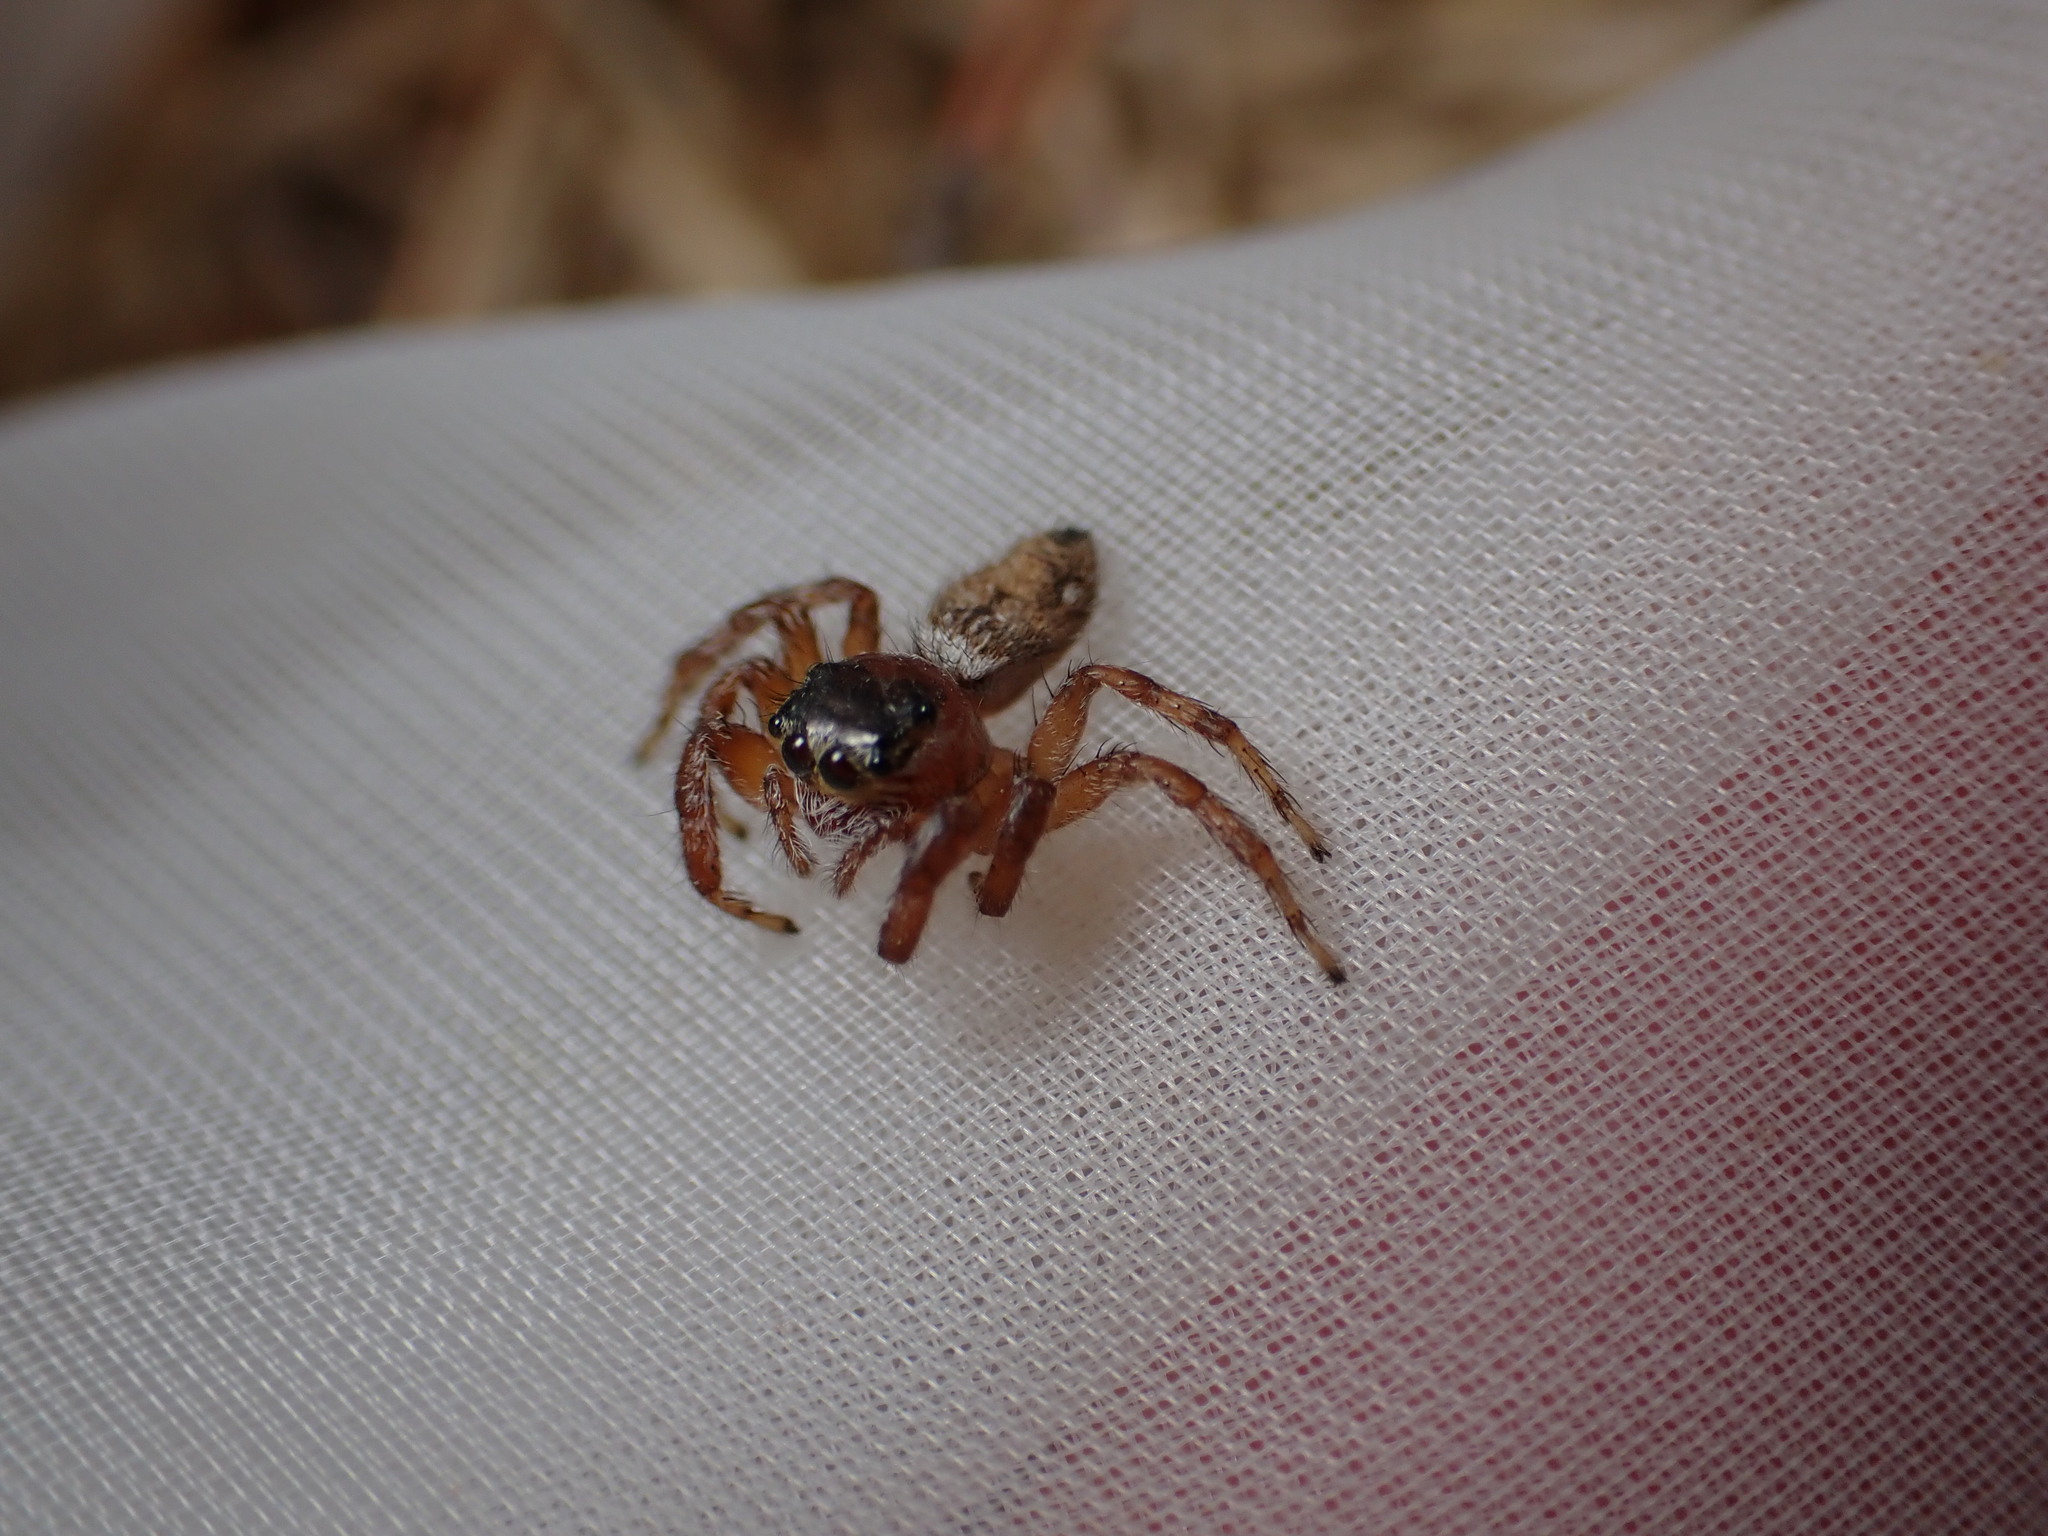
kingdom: Animalia
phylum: Arthropoda
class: Arachnida
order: Araneae
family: Salticidae
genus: Evarcha
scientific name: Evarcha jucunda
